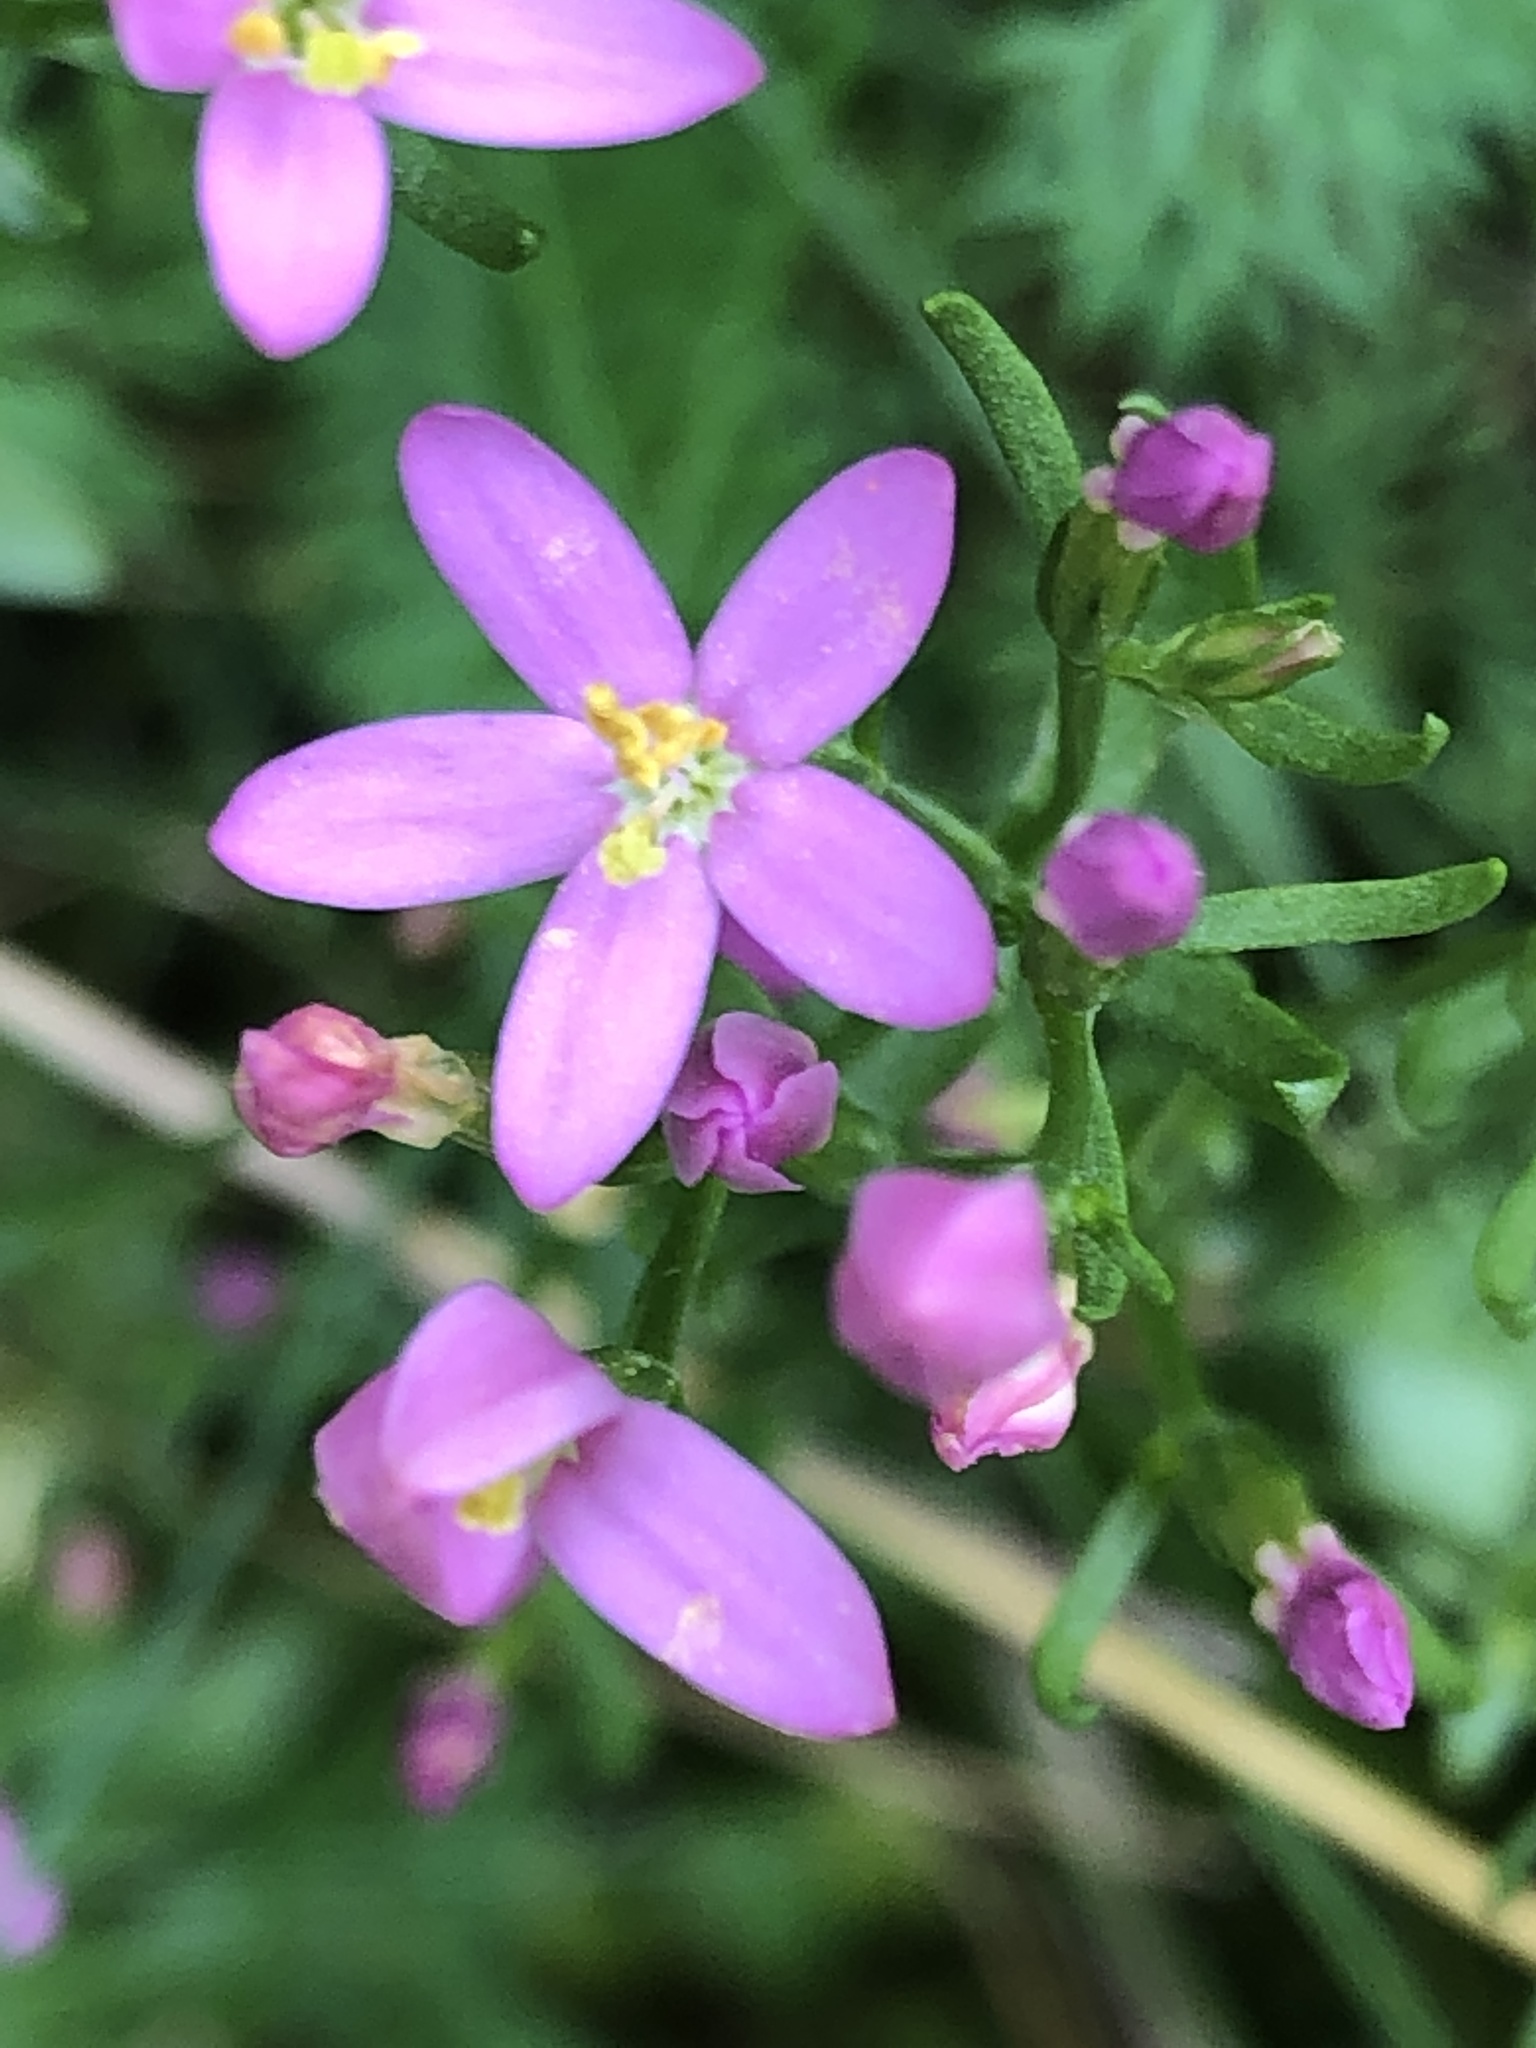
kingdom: Plantae
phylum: Tracheophyta
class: Magnoliopsida
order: Gentianales
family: Gentianaceae
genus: Centaurium
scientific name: Centaurium erythraea
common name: Common centaury
